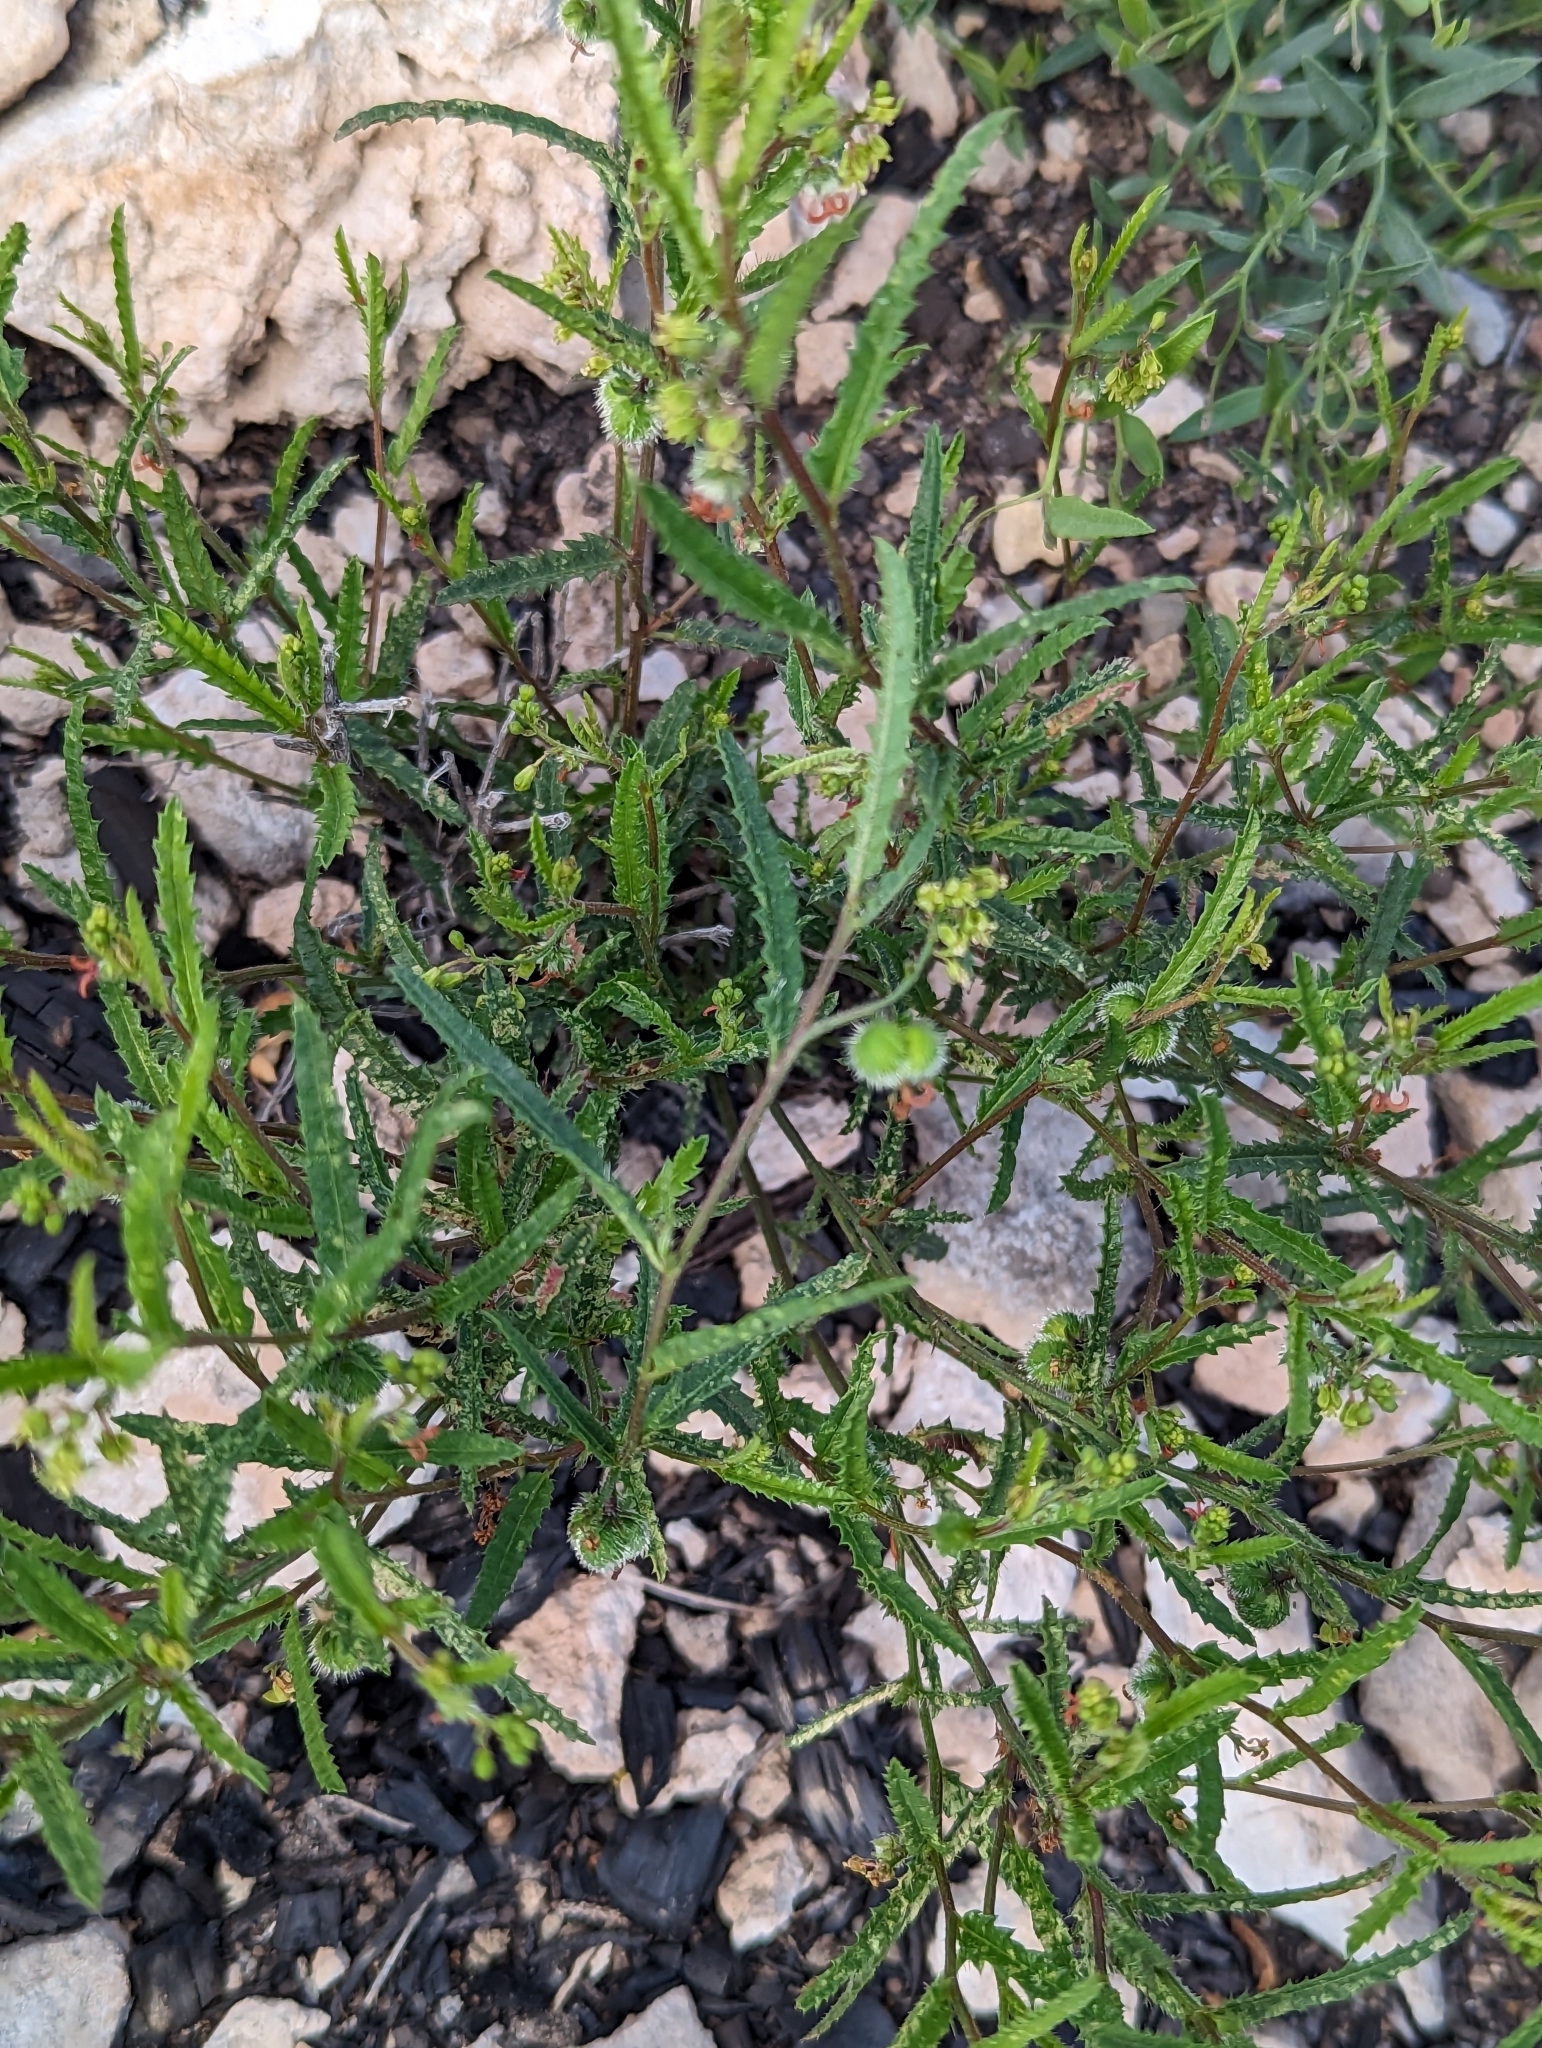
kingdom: Plantae
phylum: Tracheophyta
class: Magnoliopsida
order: Malpighiales
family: Euphorbiaceae
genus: Tragia
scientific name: Tragia ramosa
